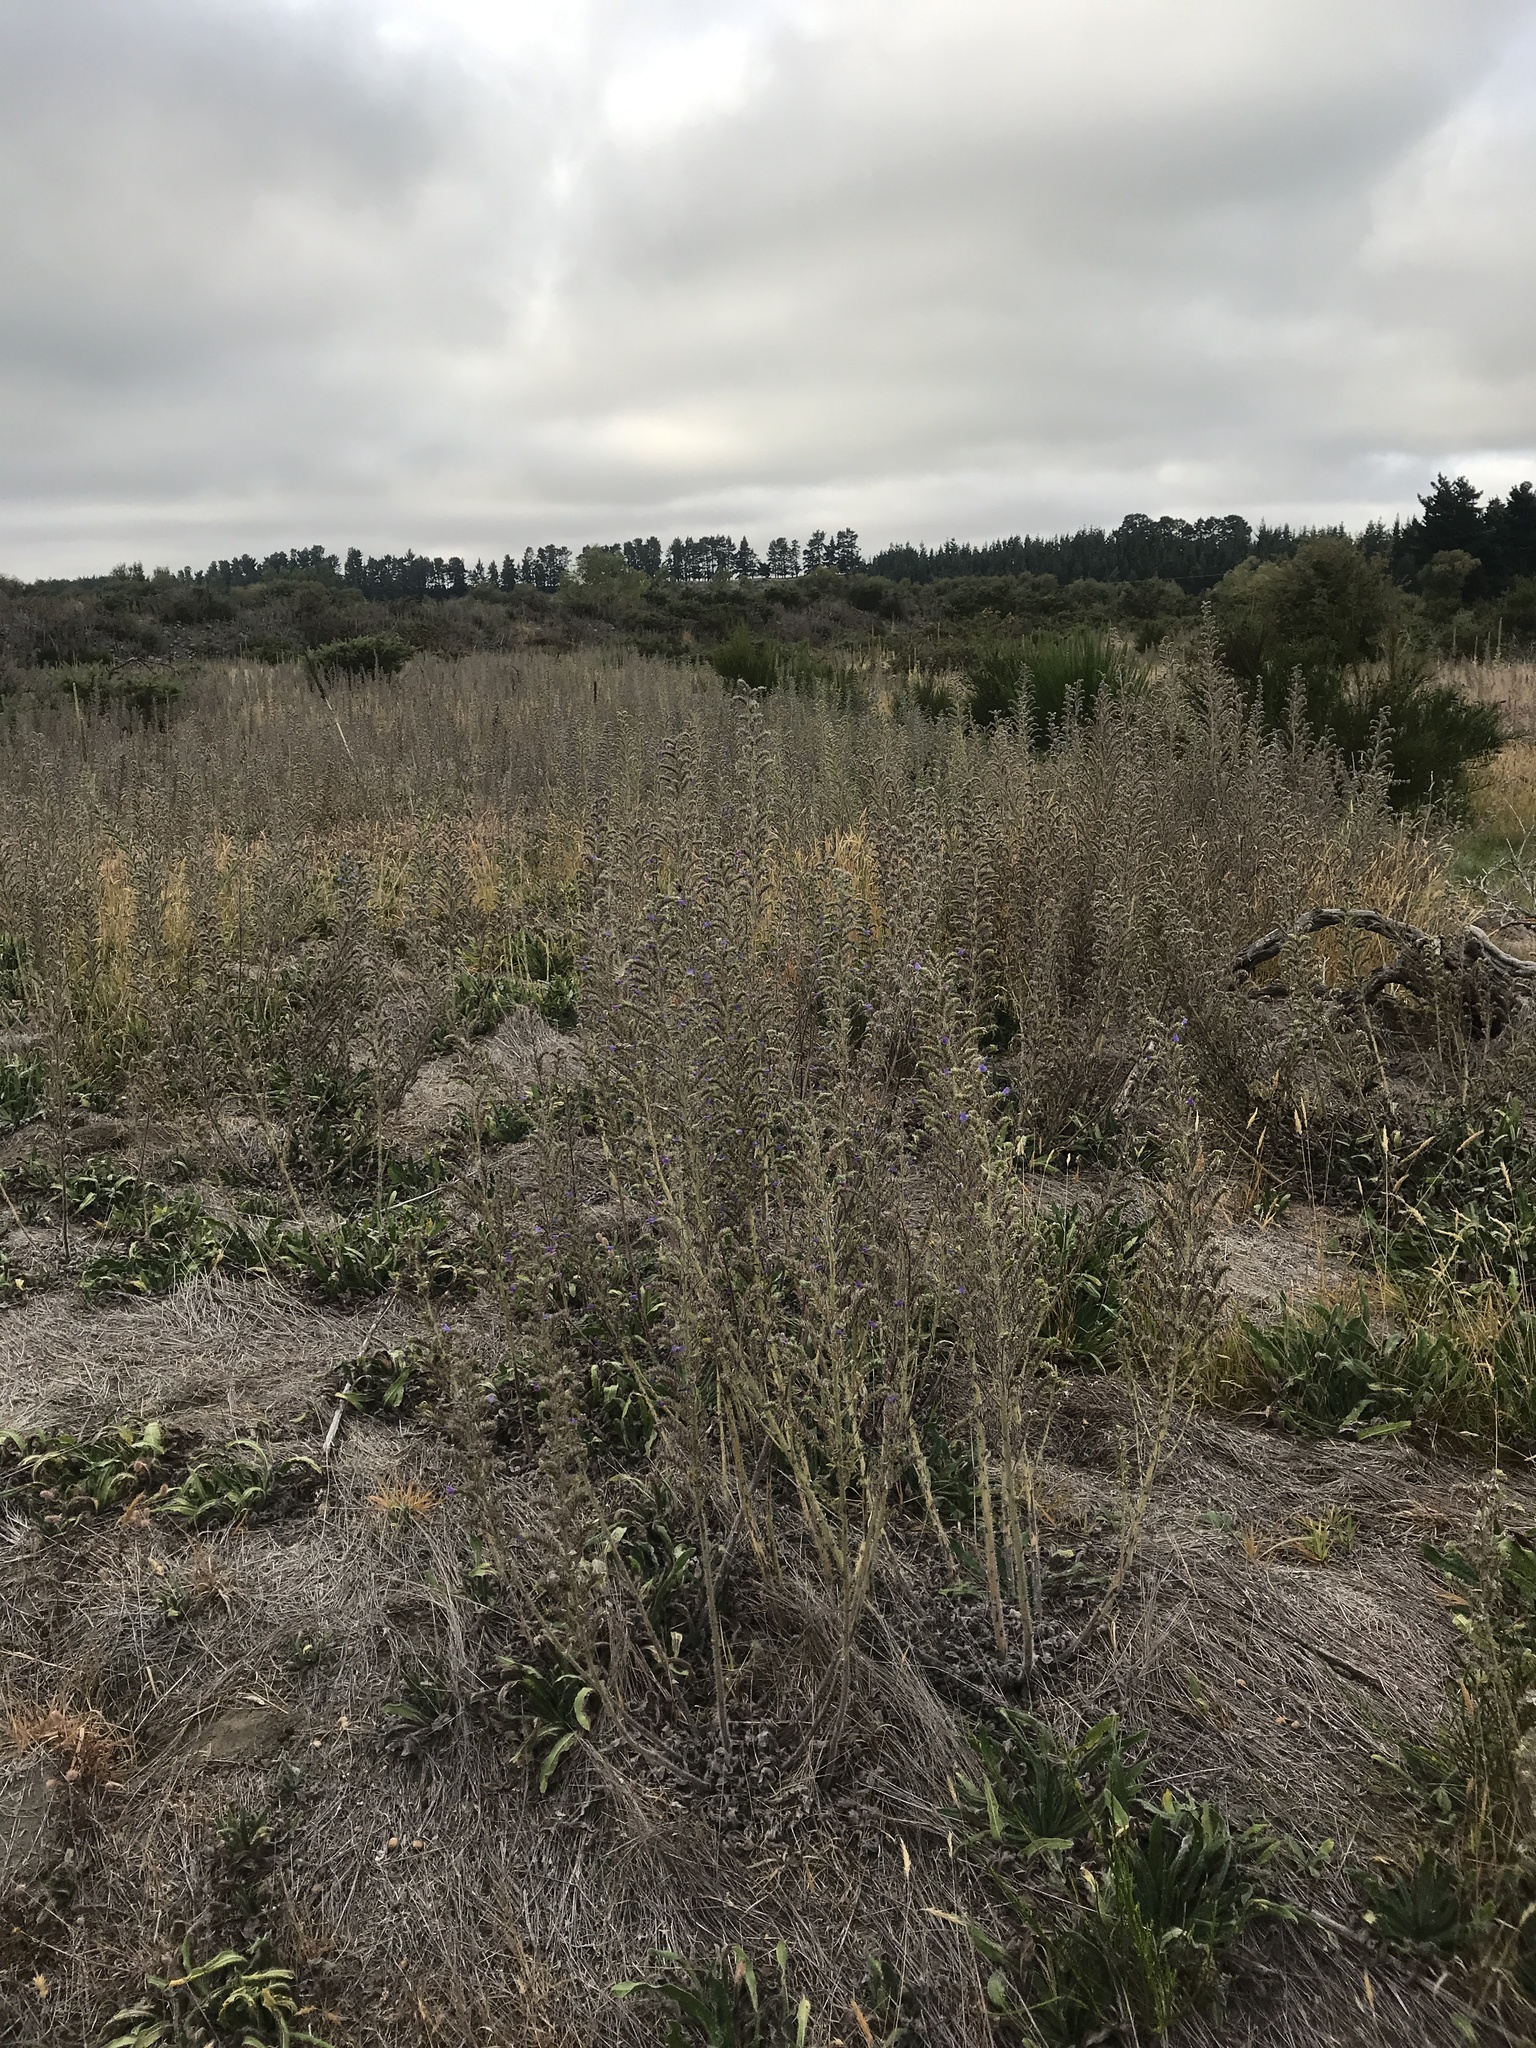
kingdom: Plantae
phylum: Tracheophyta
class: Magnoliopsida
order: Boraginales
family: Boraginaceae
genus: Echium
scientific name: Echium vulgare
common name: Common viper's bugloss
